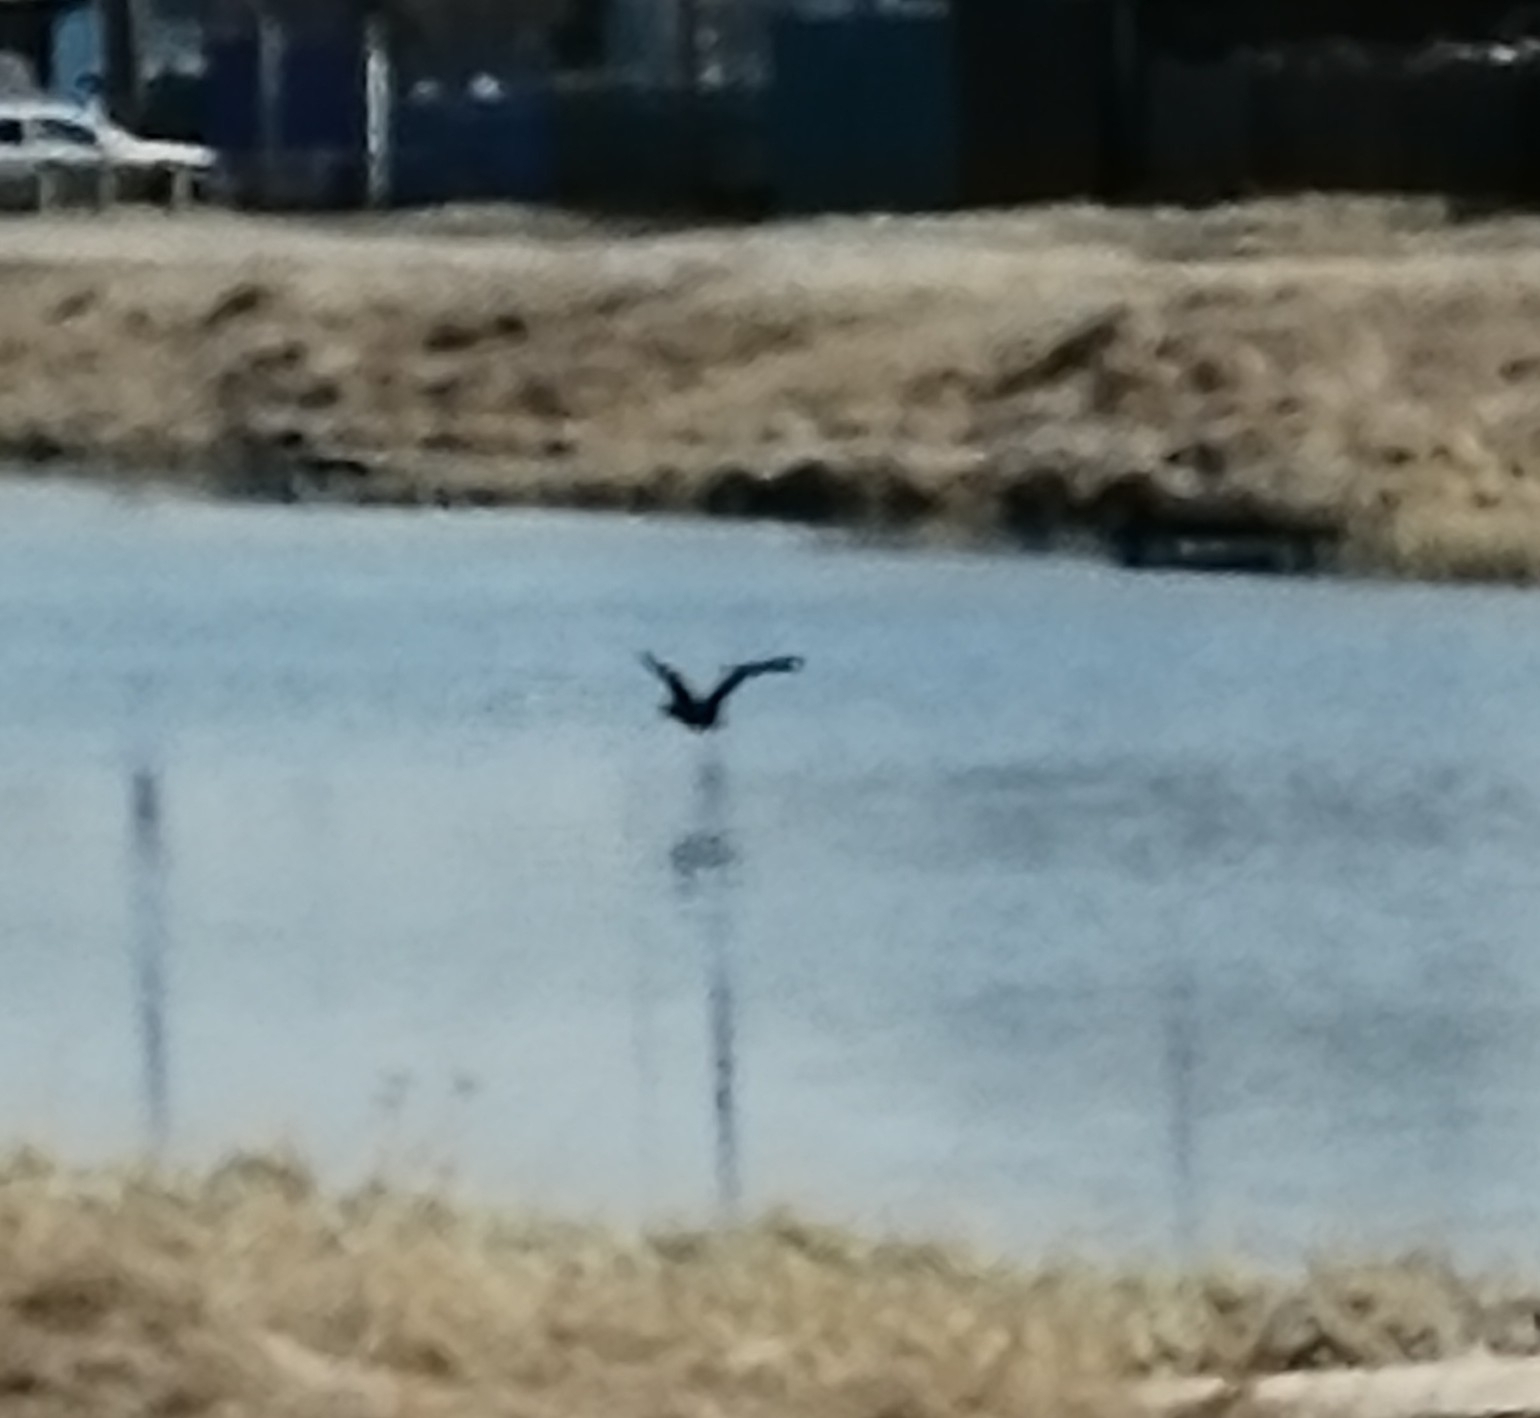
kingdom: Animalia
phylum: Chordata
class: Aves
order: Suliformes
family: Phalacrocoracidae
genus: Phalacrocorax
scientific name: Phalacrocorax carbo
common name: Great cormorant
